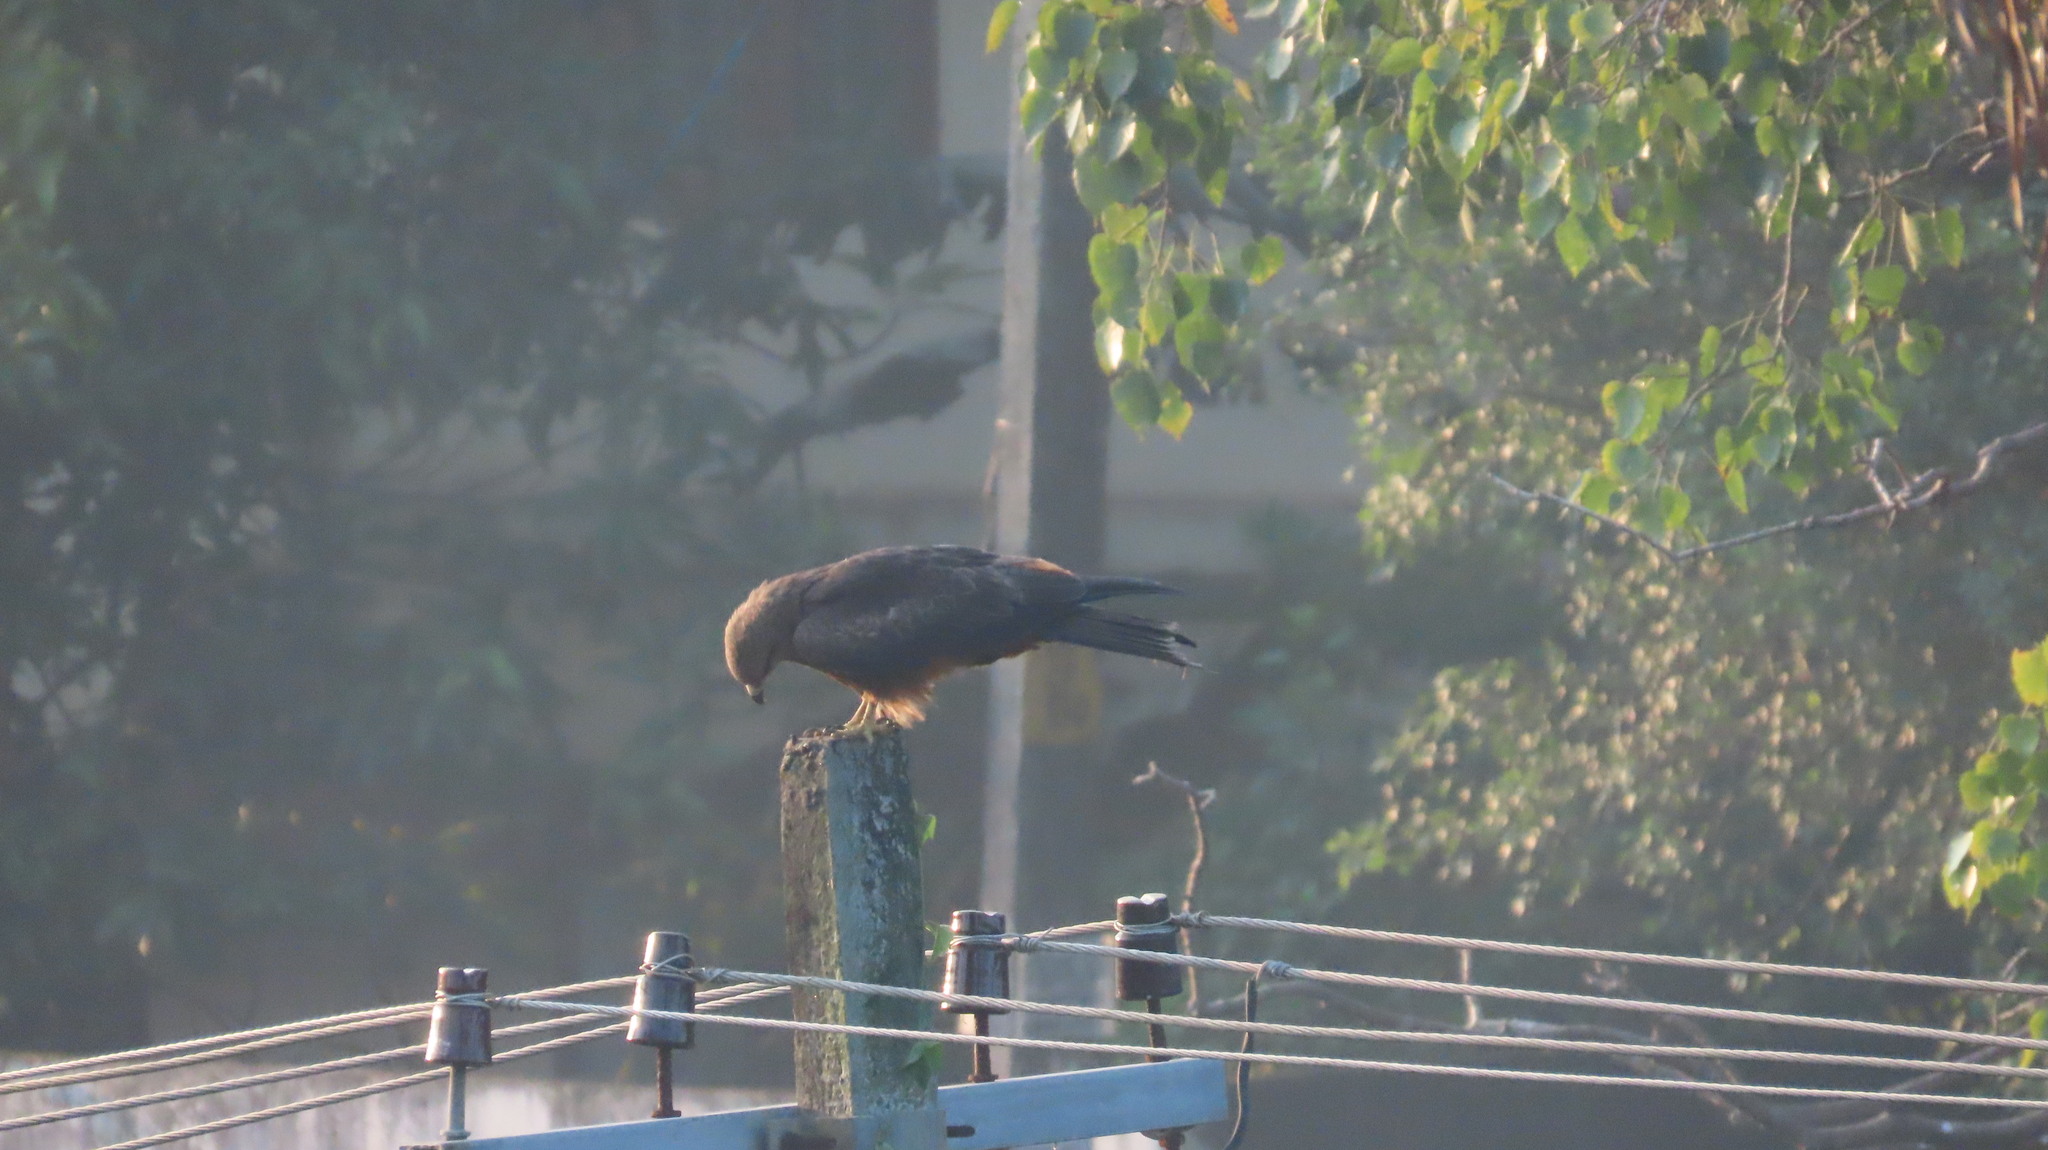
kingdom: Animalia
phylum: Chordata
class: Aves
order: Accipitriformes
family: Accipitridae
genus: Milvus
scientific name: Milvus migrans
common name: Black kite
